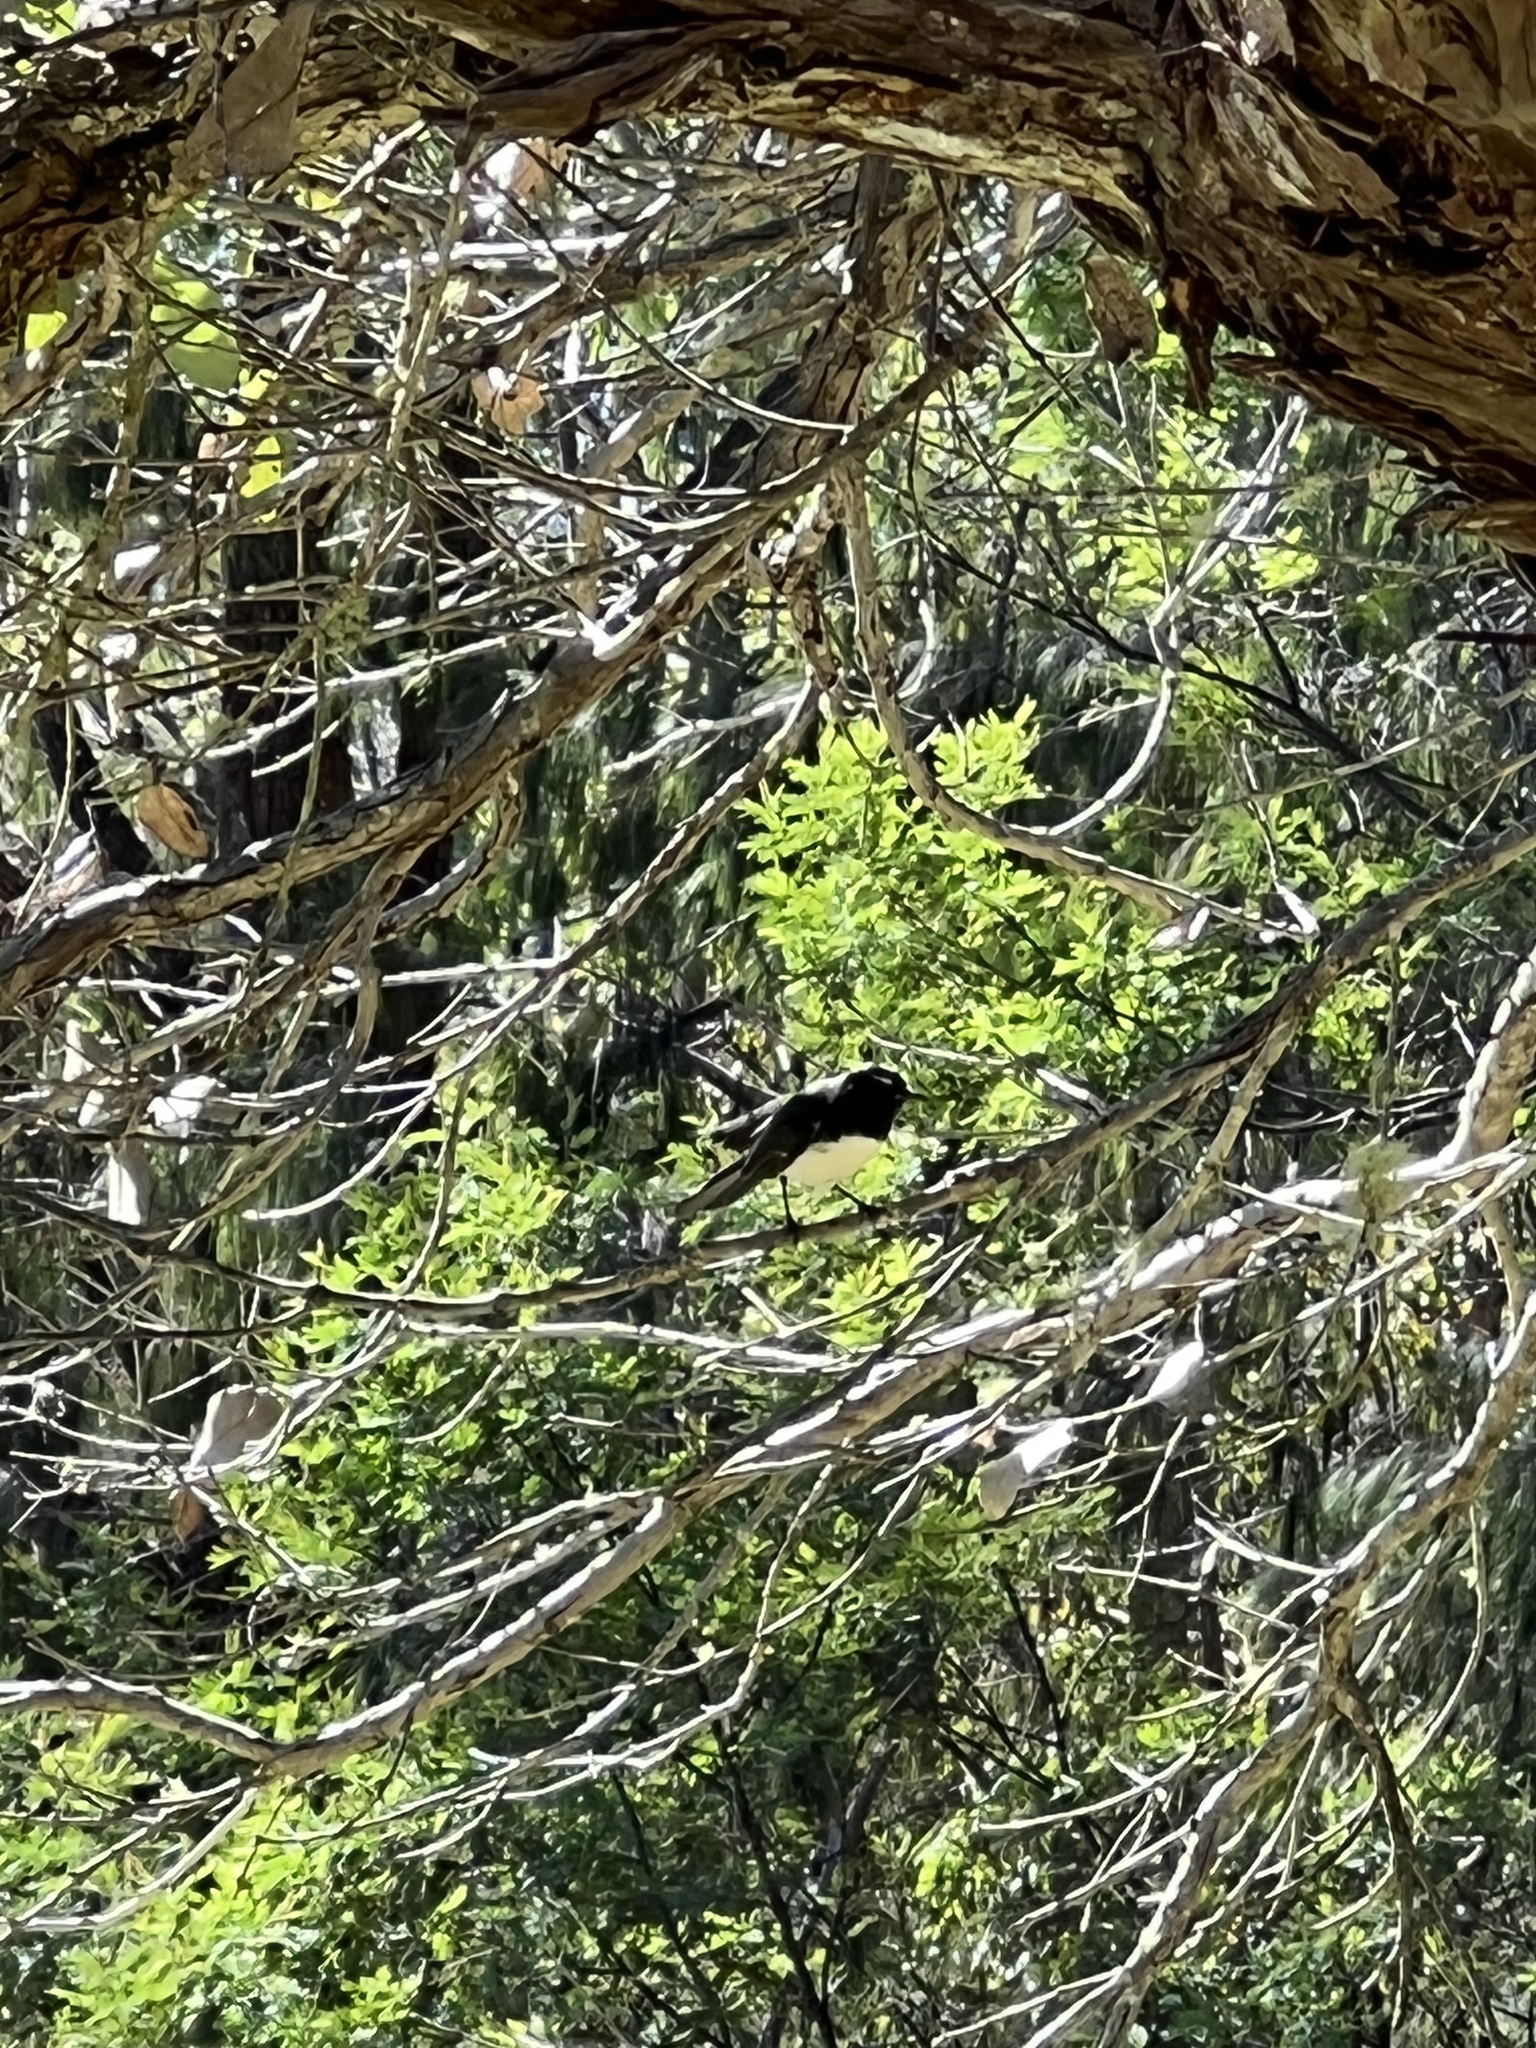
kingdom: Animalia
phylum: Chordata
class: Aves
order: Passeriformes
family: Rhipiduridae
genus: Rhipidura
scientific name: Rhipidura leucophrys
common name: Willie wagtail
